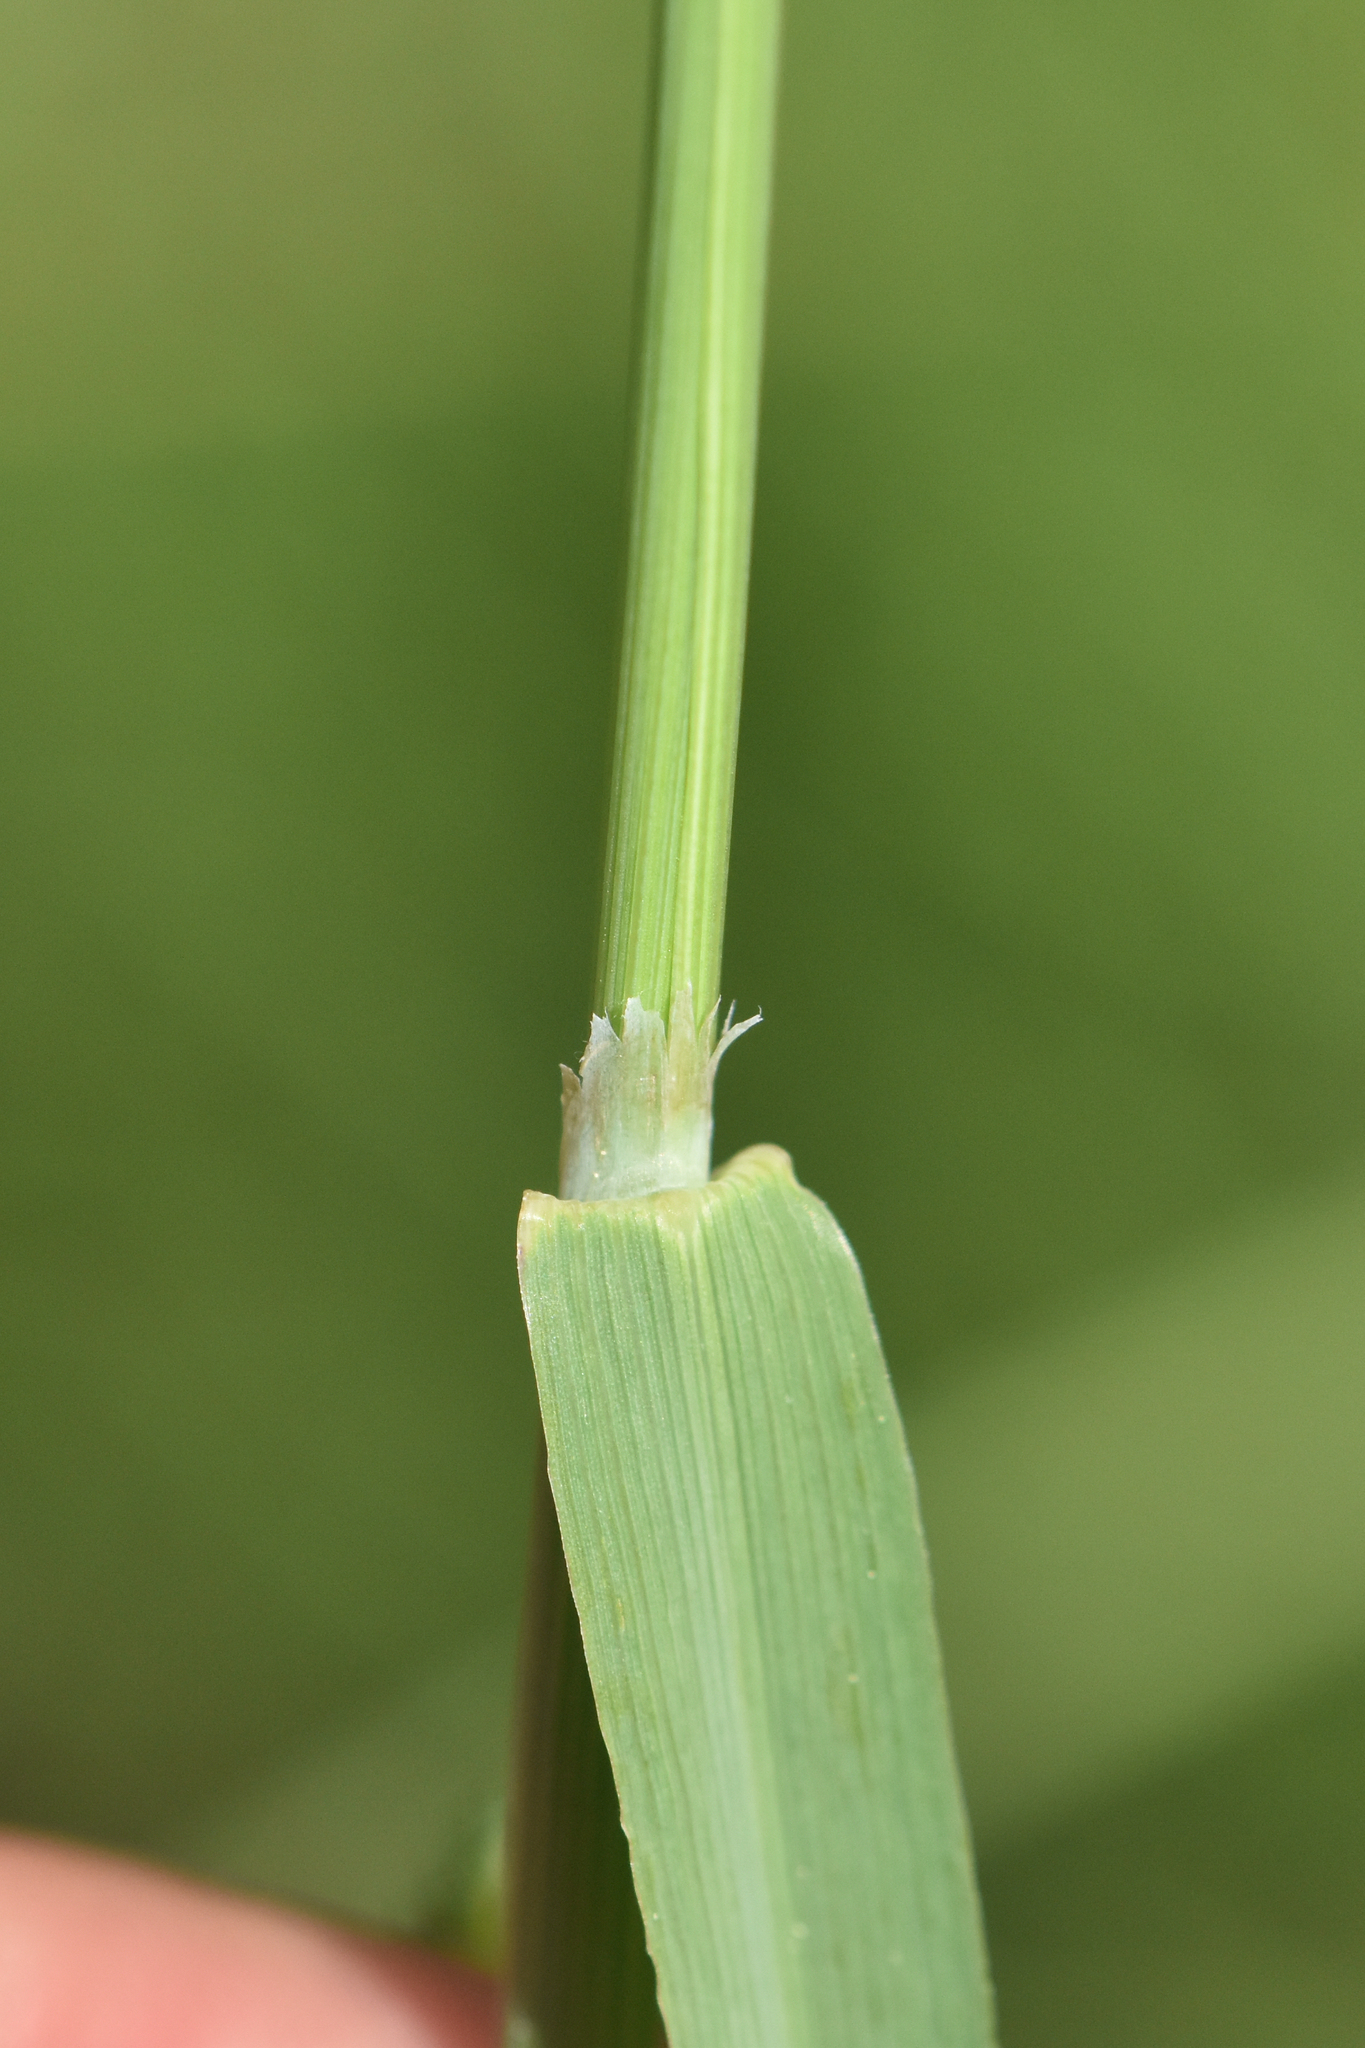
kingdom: Plantae
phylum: Tracheophyta
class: Liliopsida
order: Poales
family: Poaceae
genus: Phleum
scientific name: Phleum pratense
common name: Timothy grass
